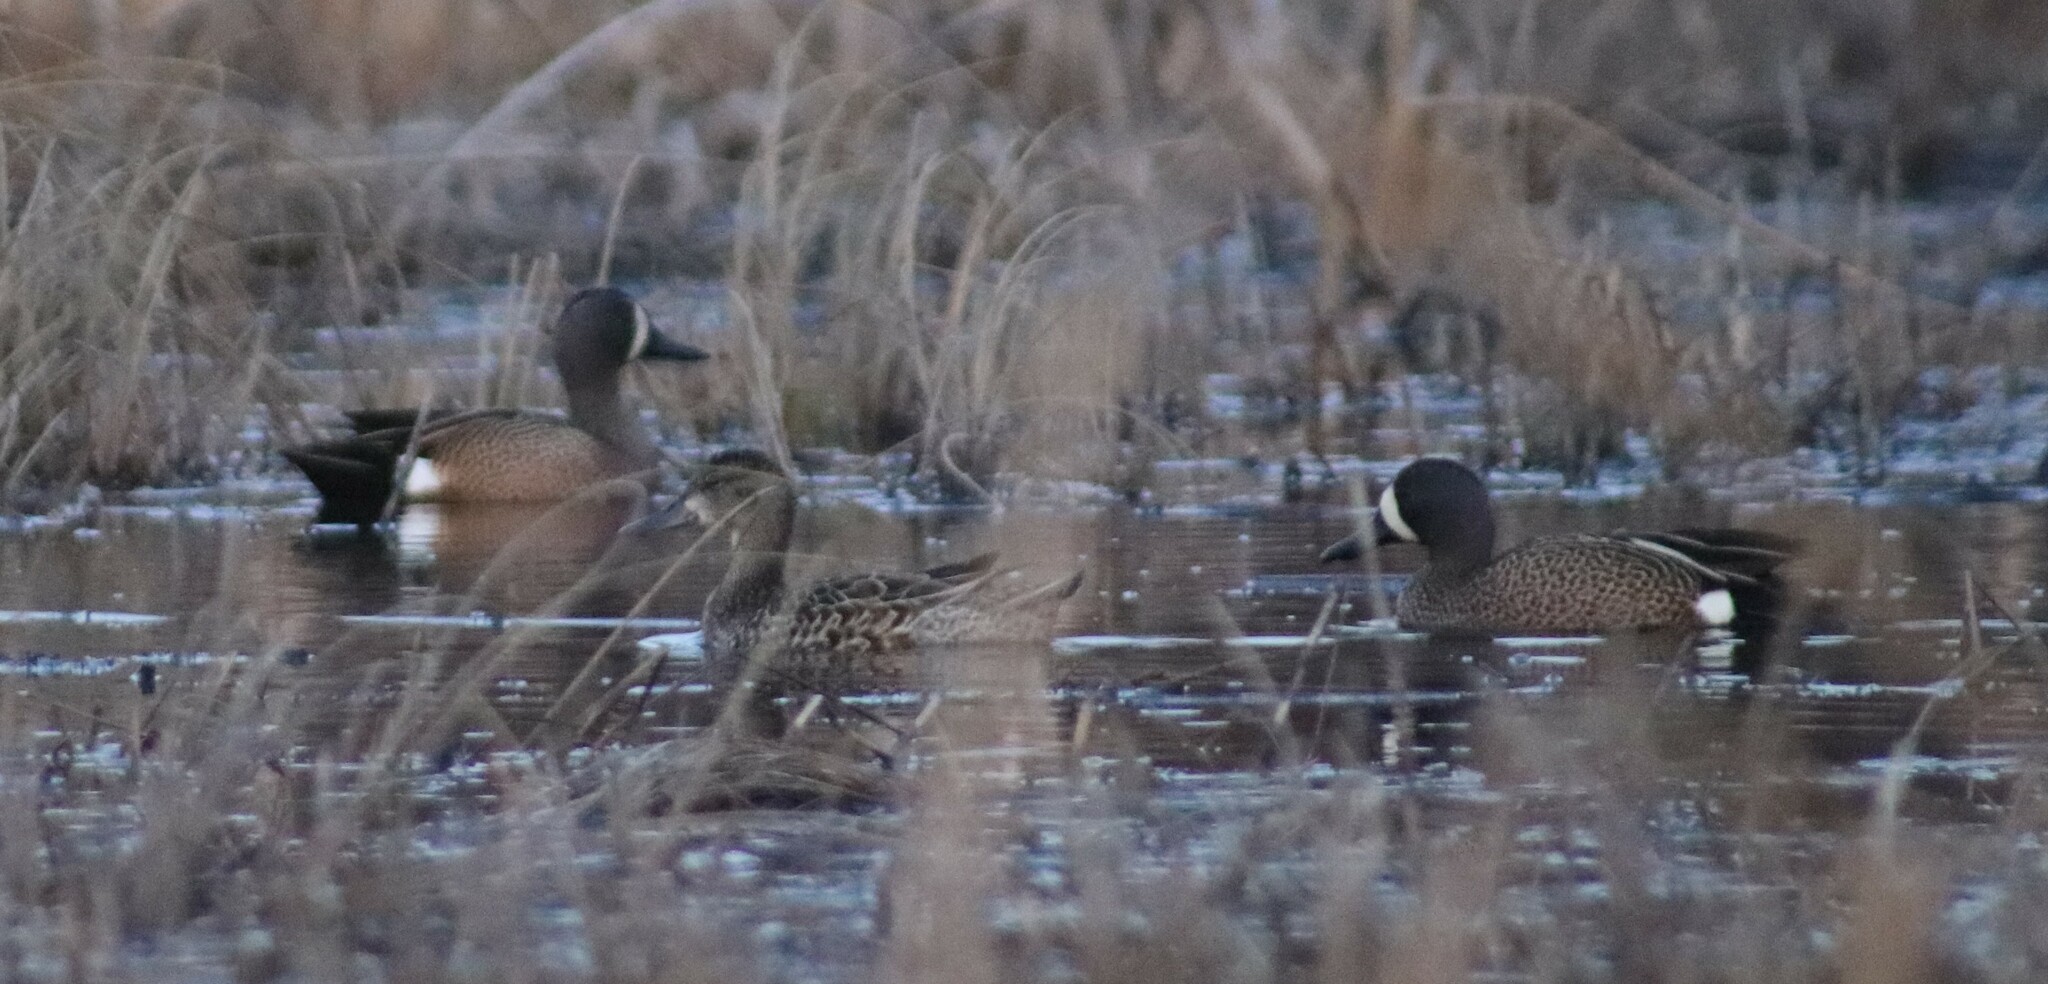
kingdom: Animalia
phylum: Chordata
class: Aves
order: Anseriformes
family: Anatidae
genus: Spatula
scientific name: Spatula discors
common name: Blue-winged teal
